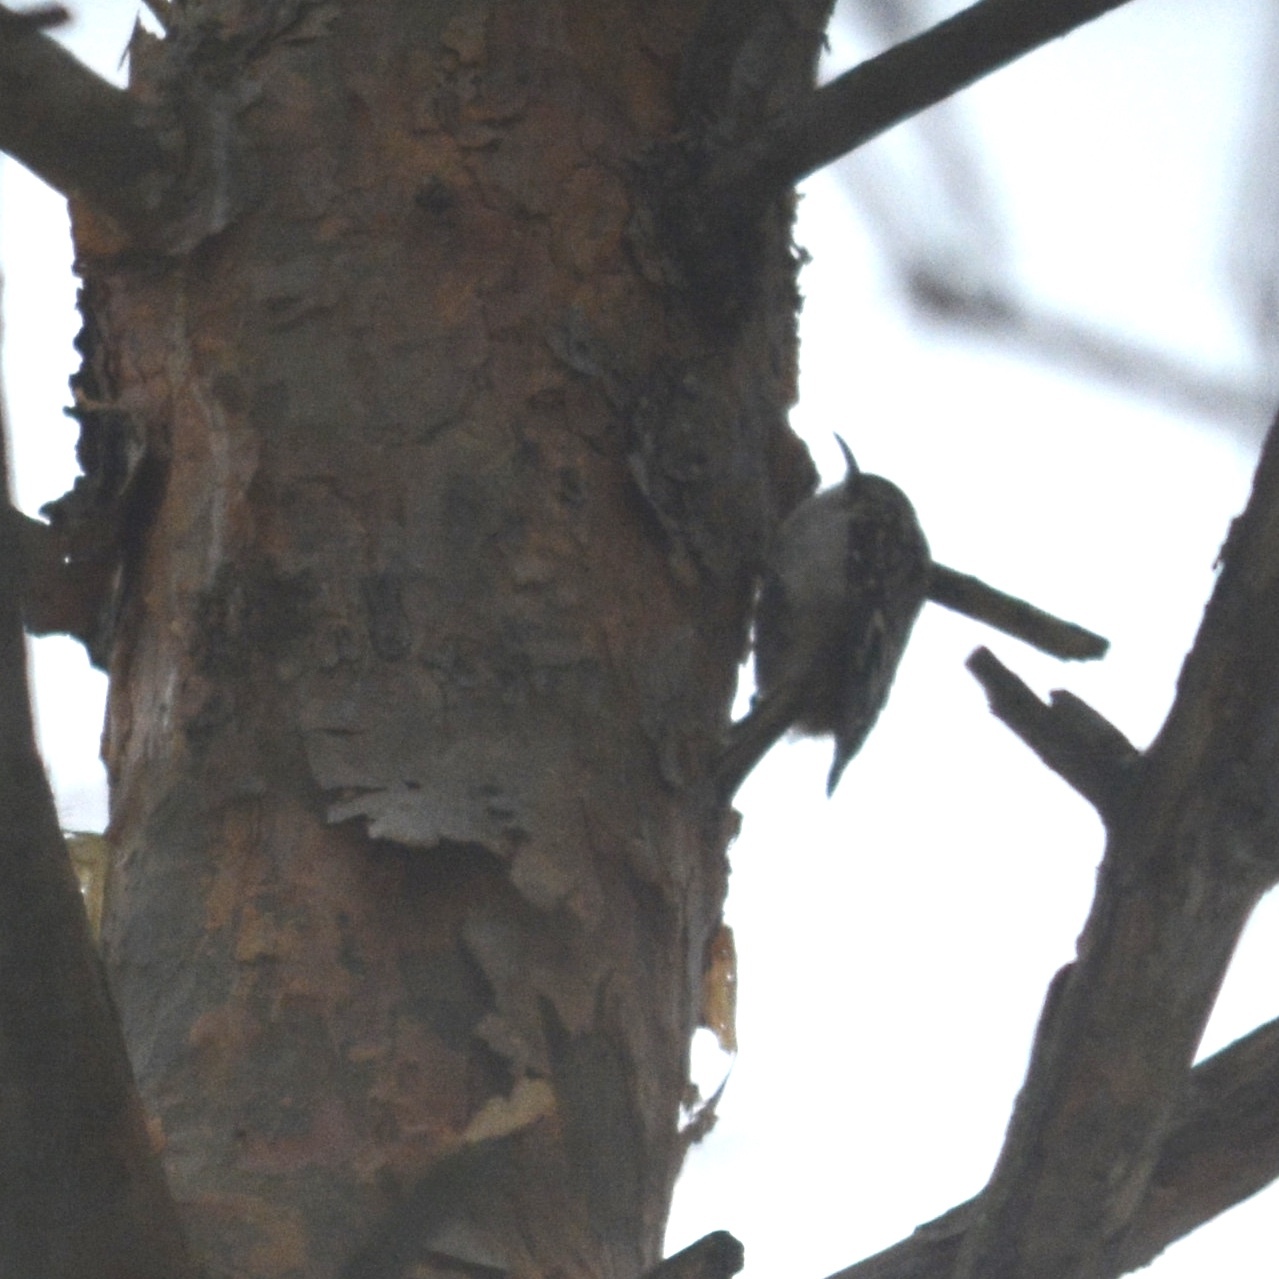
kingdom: Animalia
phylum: Chordata
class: Aves
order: Passeriformes
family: Certhiidae
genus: Certhia
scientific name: Certhia americana
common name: Brown creeper
